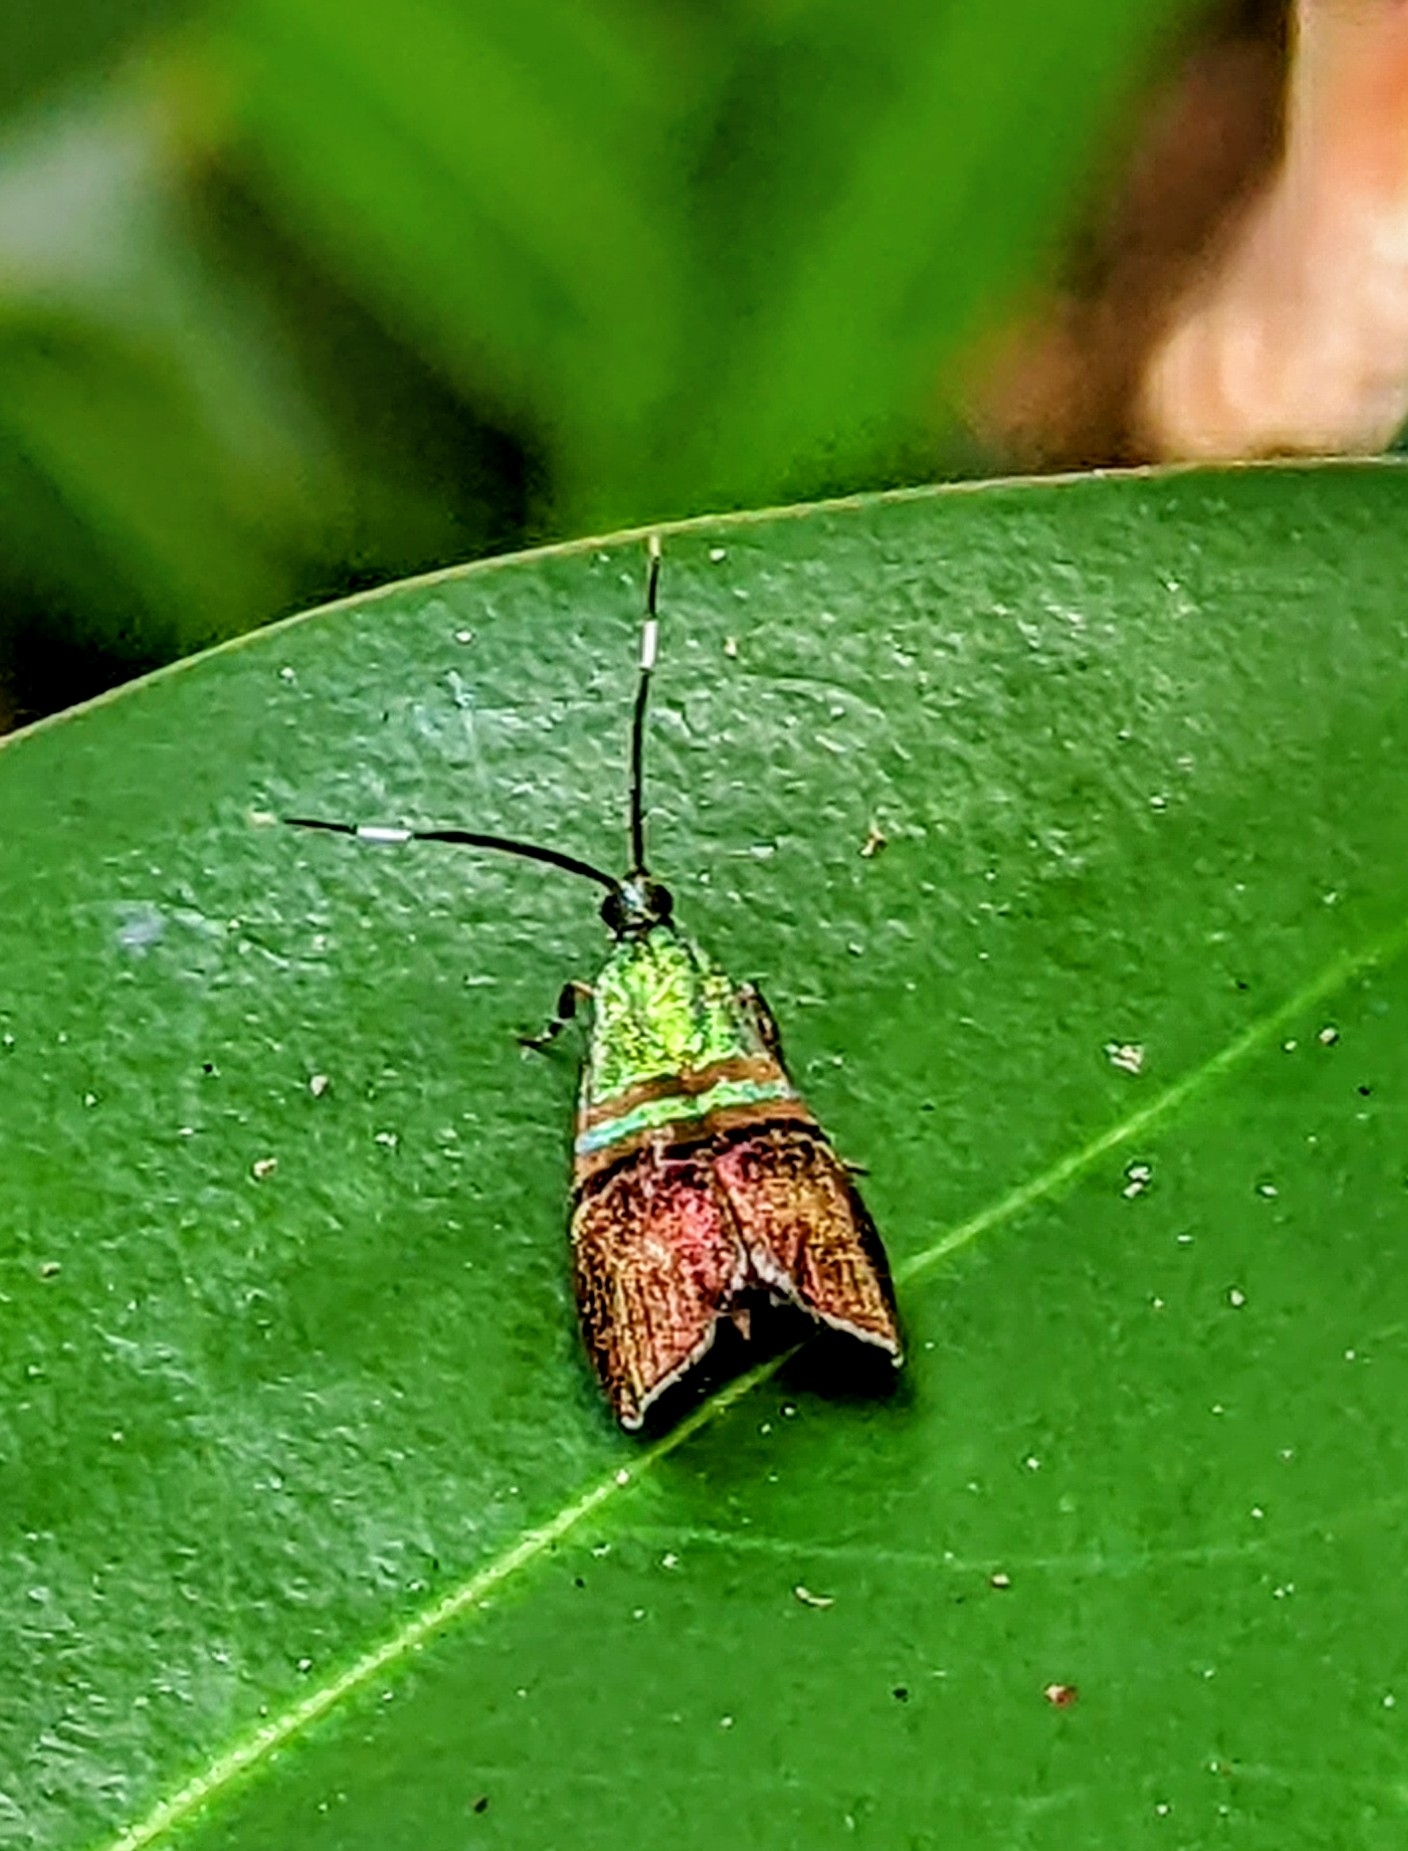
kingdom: Animalia
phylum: Arthropoda
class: Insecta
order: Lepidoptera
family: Choreutidae
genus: Saptha
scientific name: Saptha pretiosa
